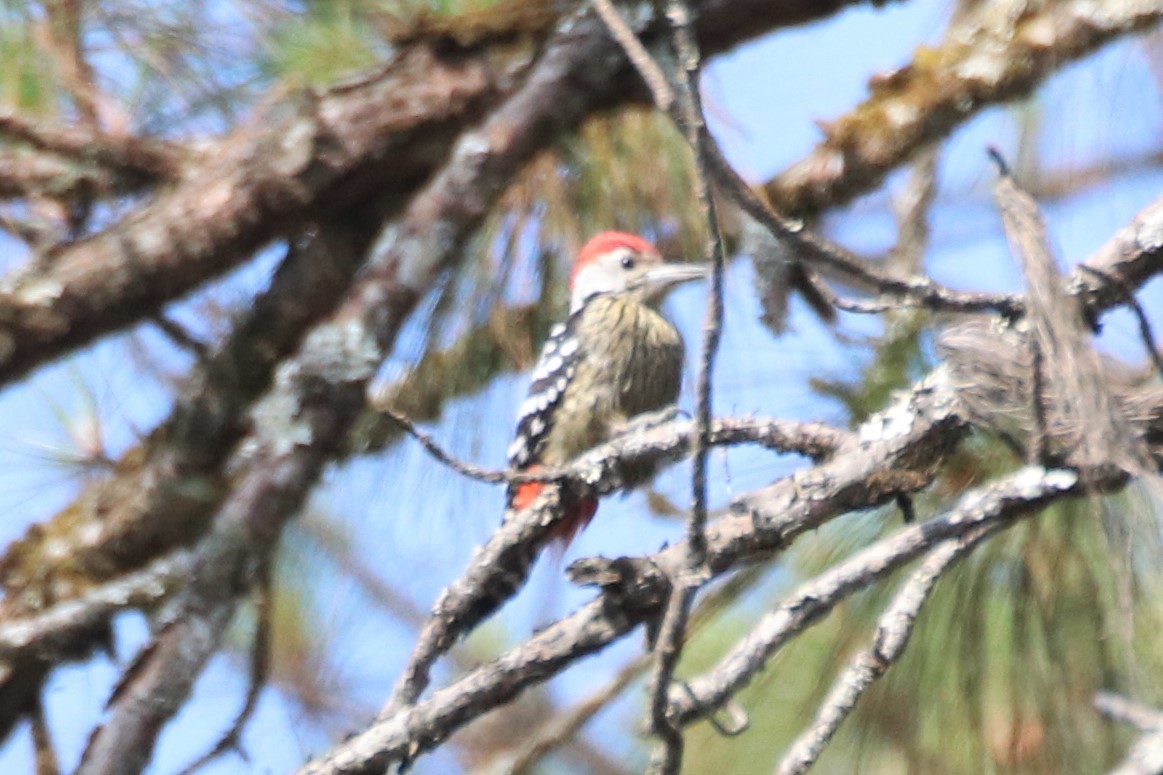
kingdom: Animalia
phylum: Chordata
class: Aves
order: Piciformes
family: Picidae
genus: Dendrocopos
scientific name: Dendrocopos atratus
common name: Stripe-breasted woodpecker
